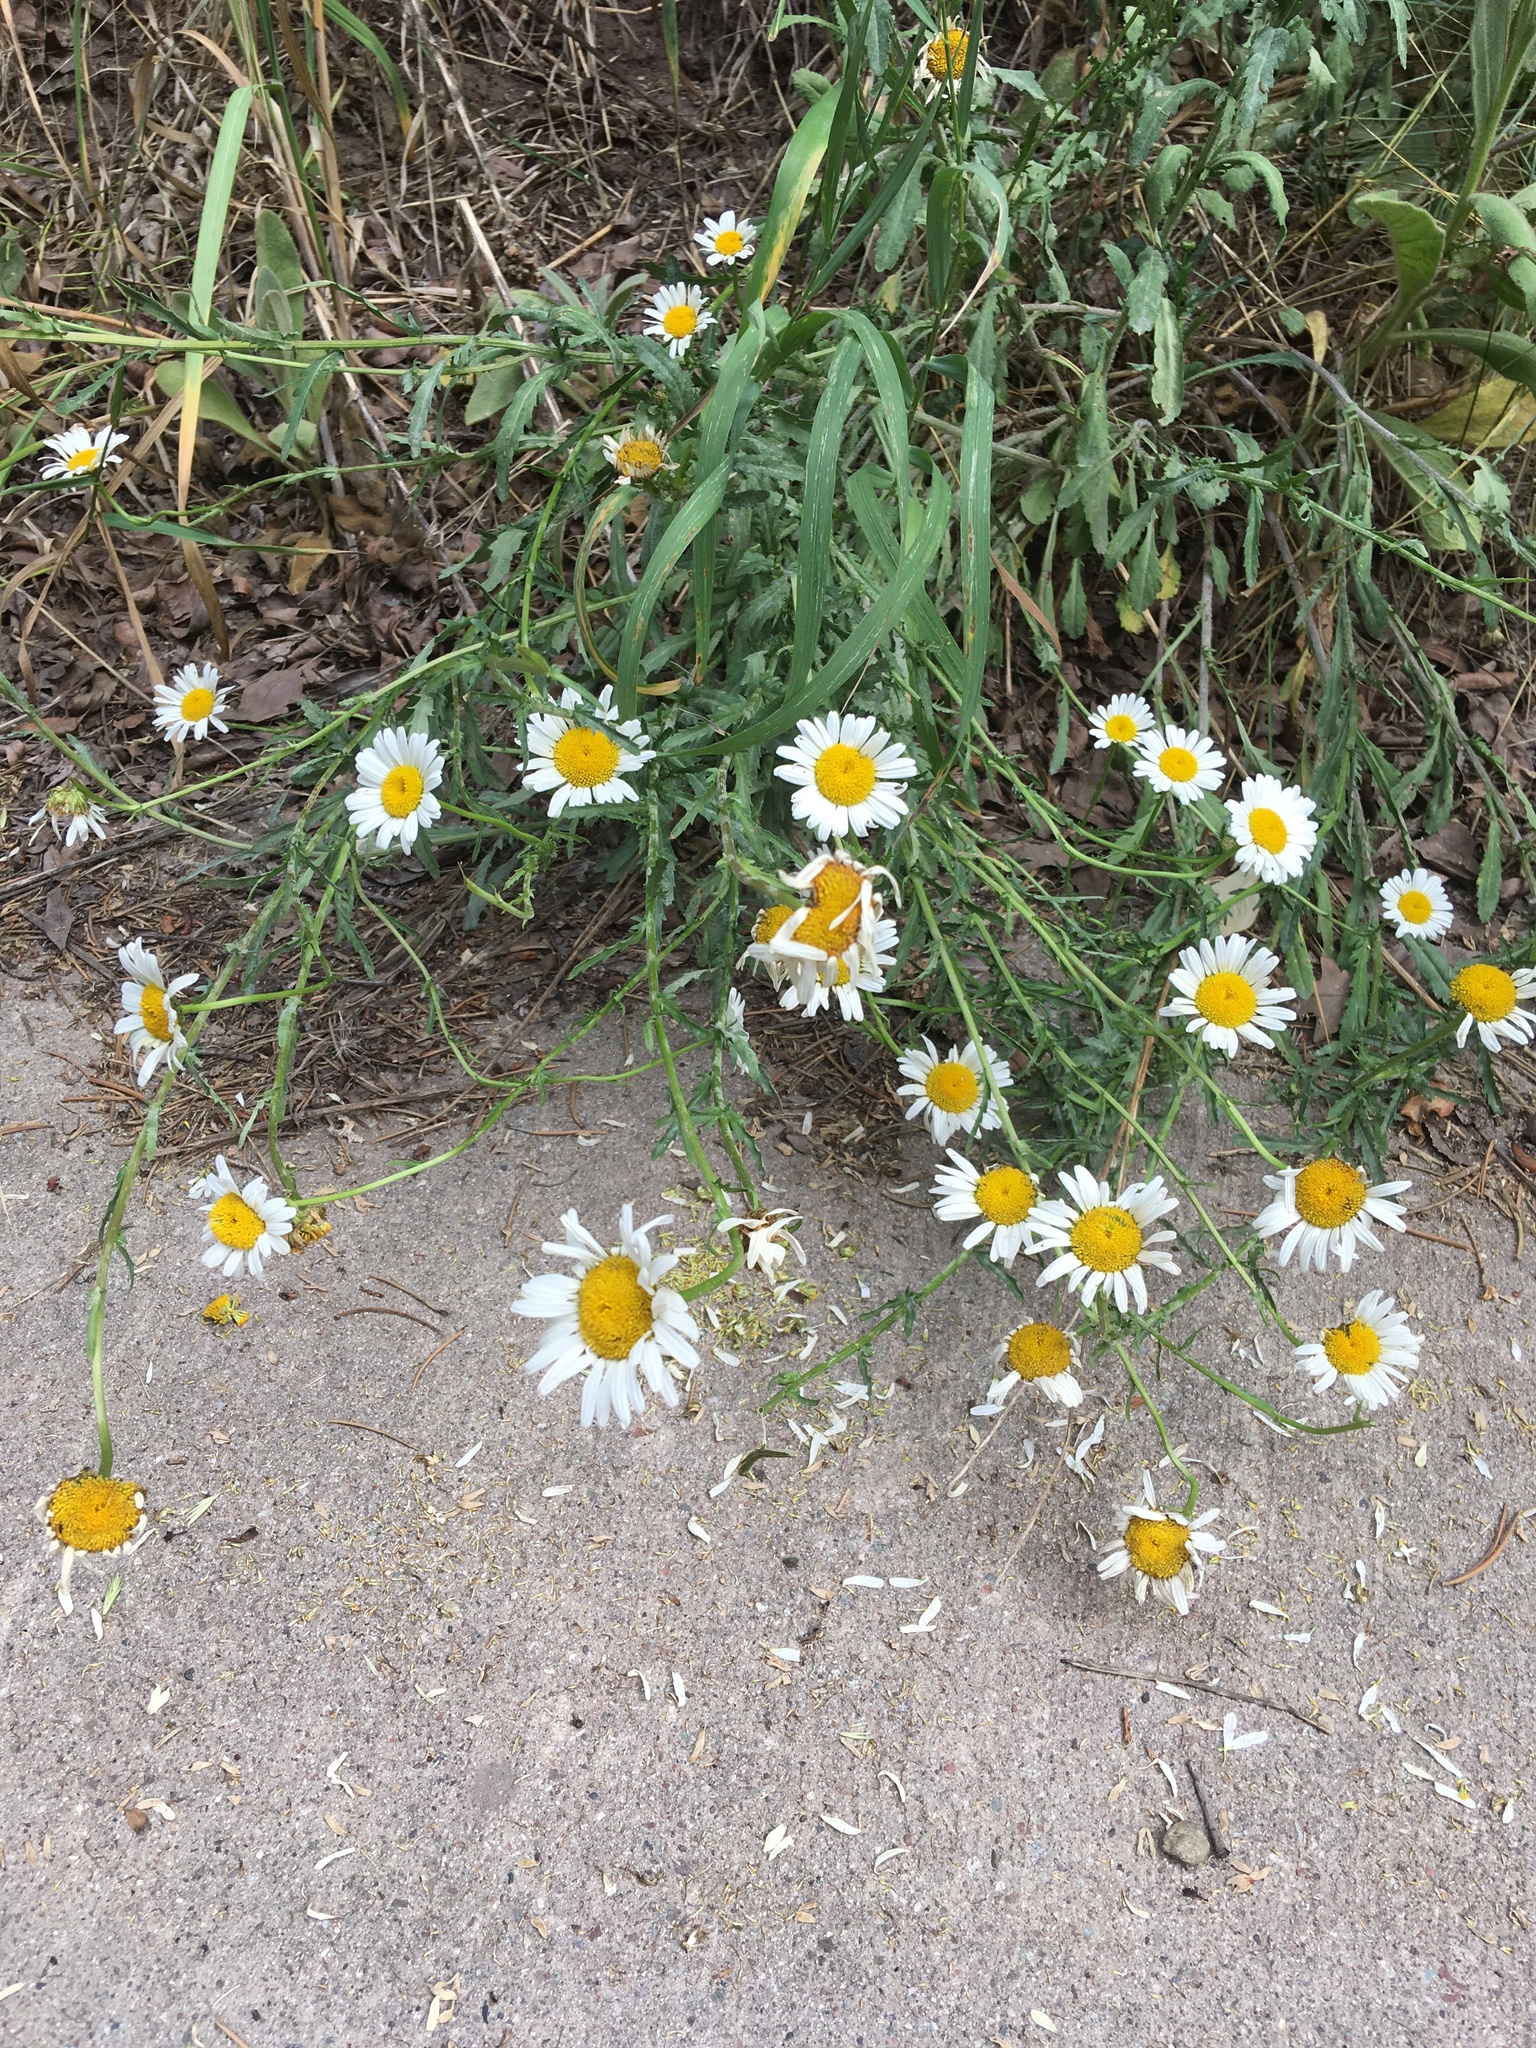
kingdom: Plantae
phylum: Tracheophyta
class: Magnoliopsida
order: Asterales
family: Asteraceae
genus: Leucanthemum
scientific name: Leucanthemum vulgare
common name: Oxeye daisy
